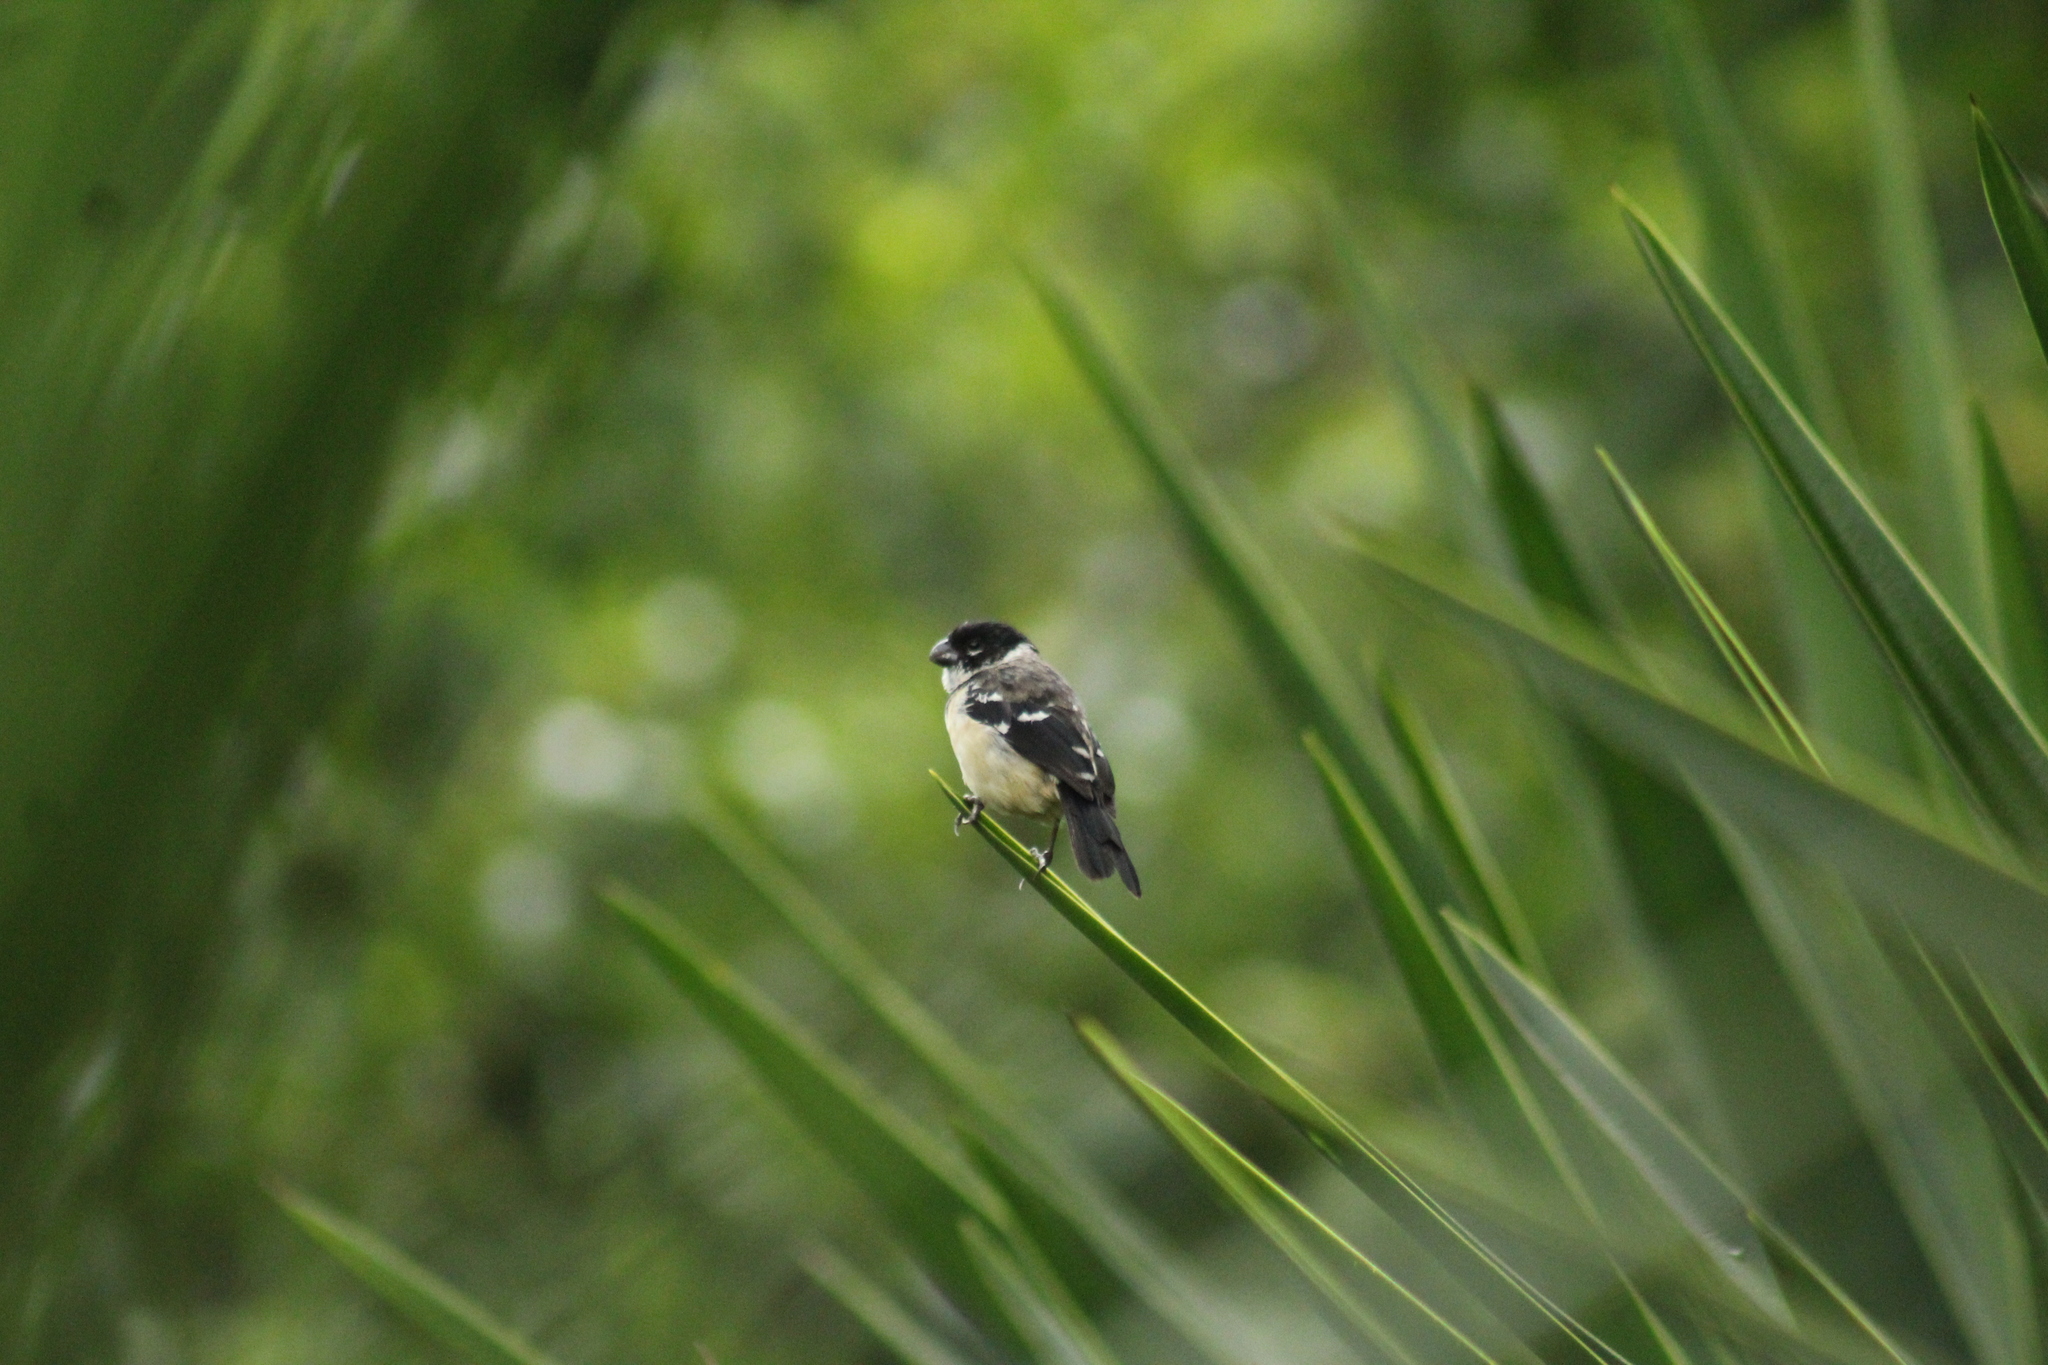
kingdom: Animalia
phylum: Chordata
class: Aves
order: Passeriformes
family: Thraupidae
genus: Sporophila
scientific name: Sporophila morelleti
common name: Morelet's seedeater
